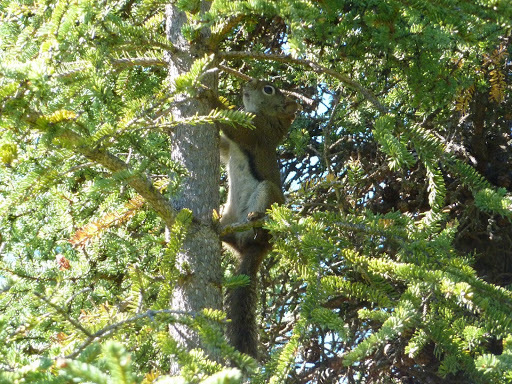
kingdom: Animalia
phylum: Chordata
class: Mammalia
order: Rodentia
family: Sciuridae
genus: Tamiasciurus
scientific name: Tamiasciurus hudsonicus
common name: Red squirrel
